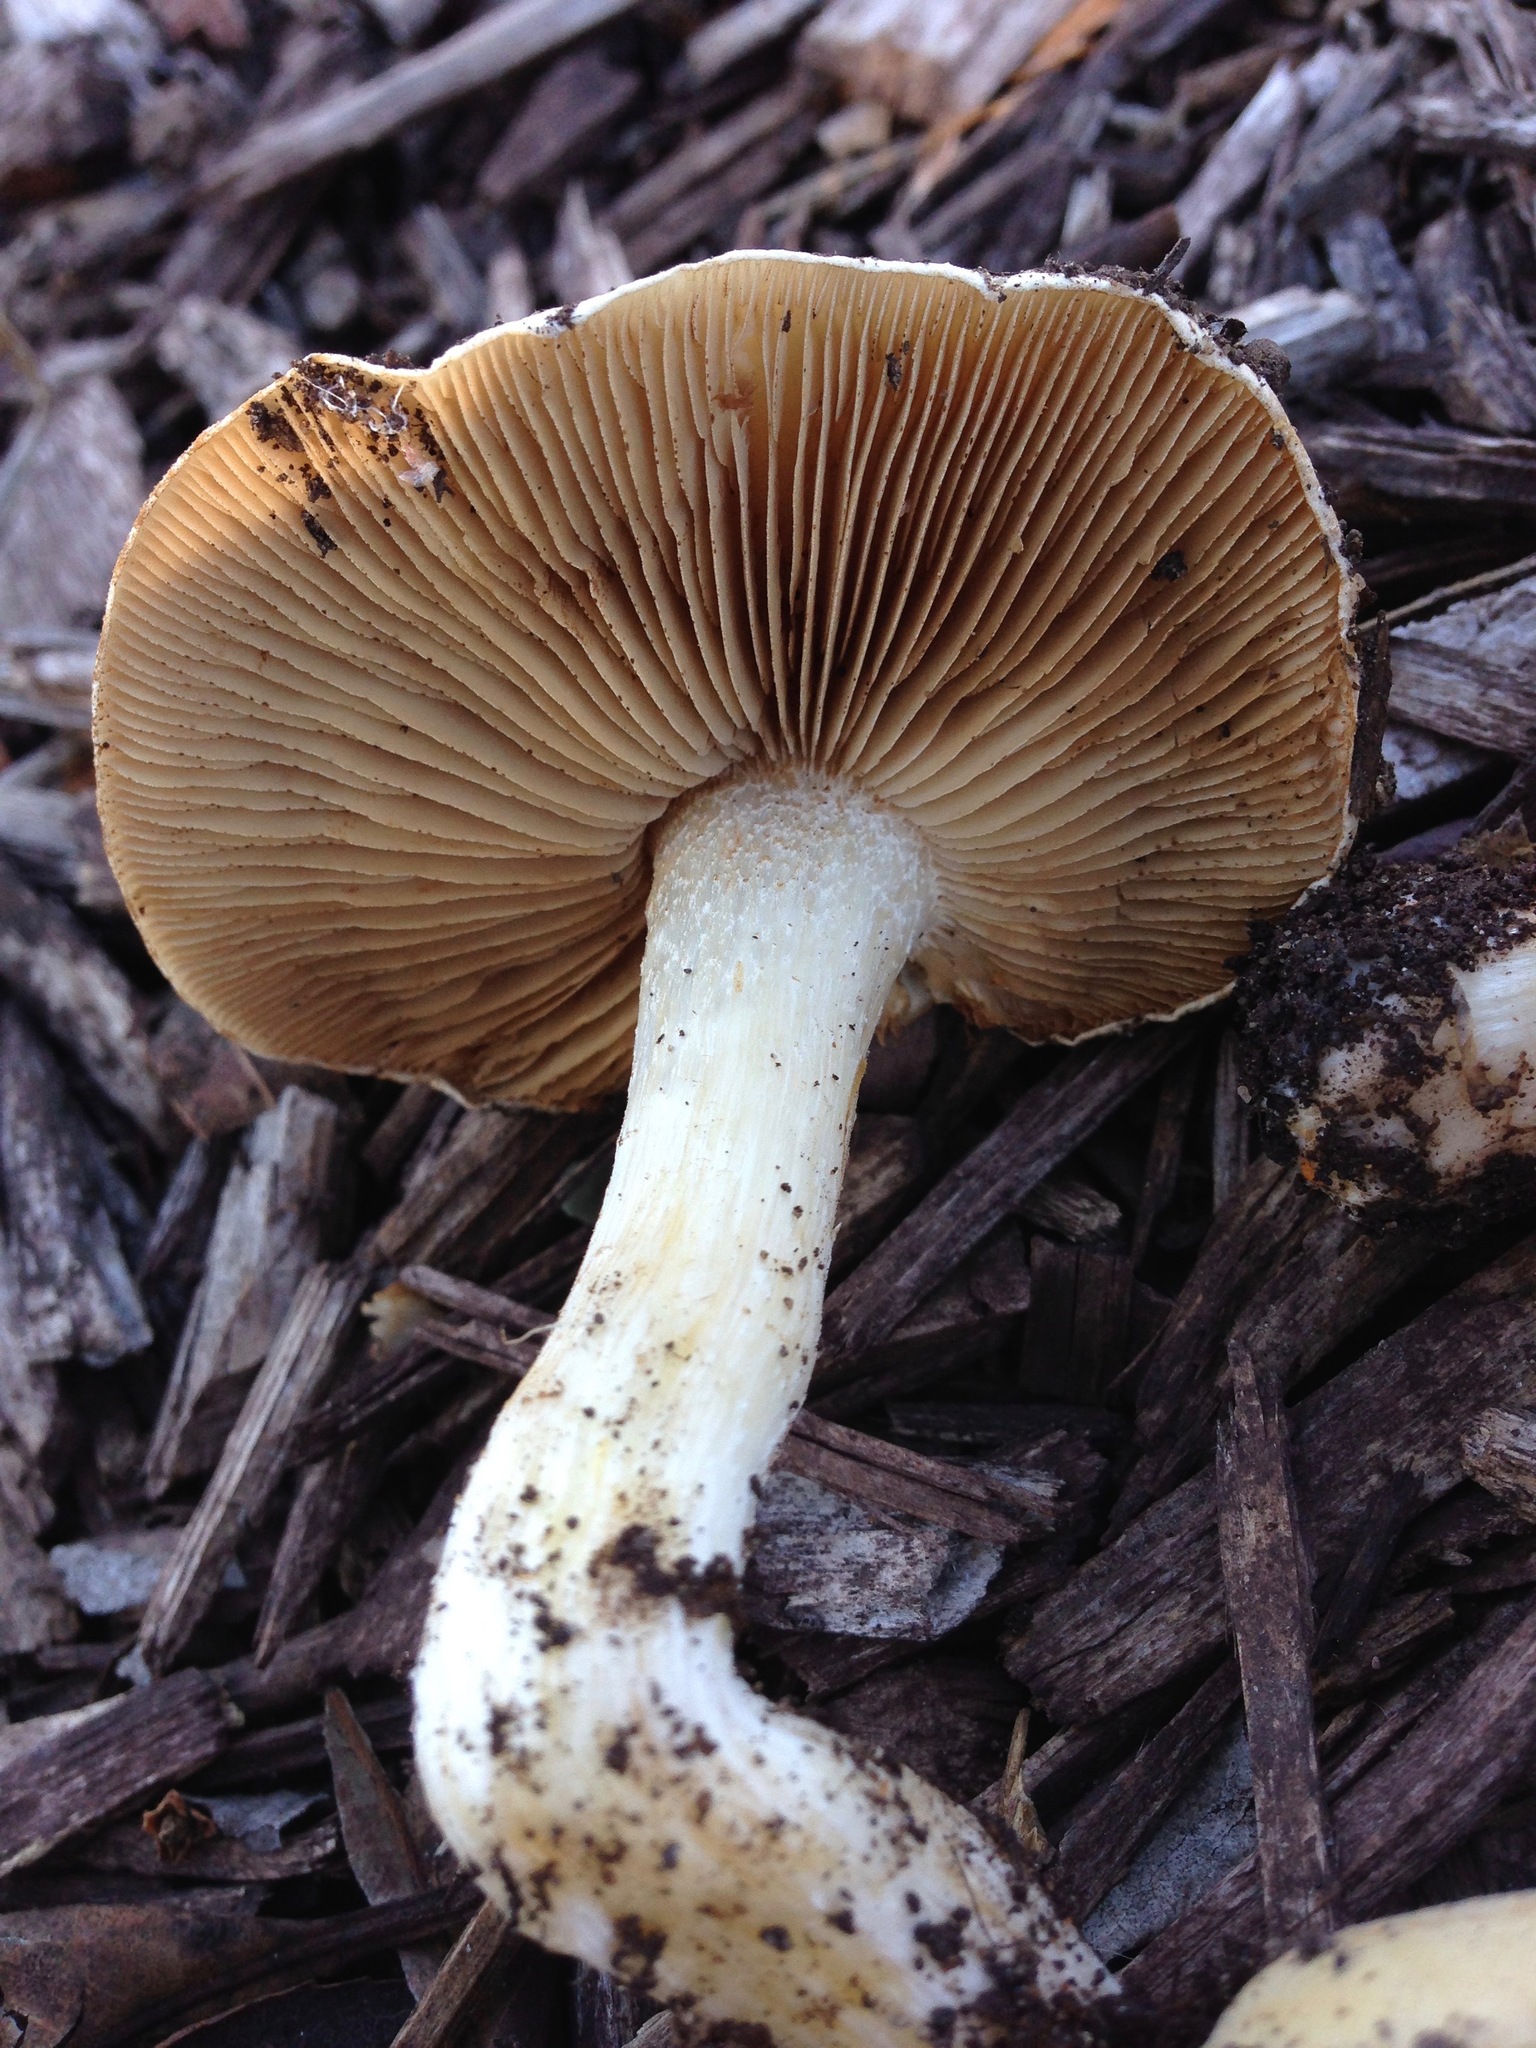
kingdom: Fungi
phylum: Basidiomycota
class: Agaricomycetes
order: Agaricales
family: Hymenogastraceae
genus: Hebeloma
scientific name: Hebeloma crustuliniforme
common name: Poison pie
